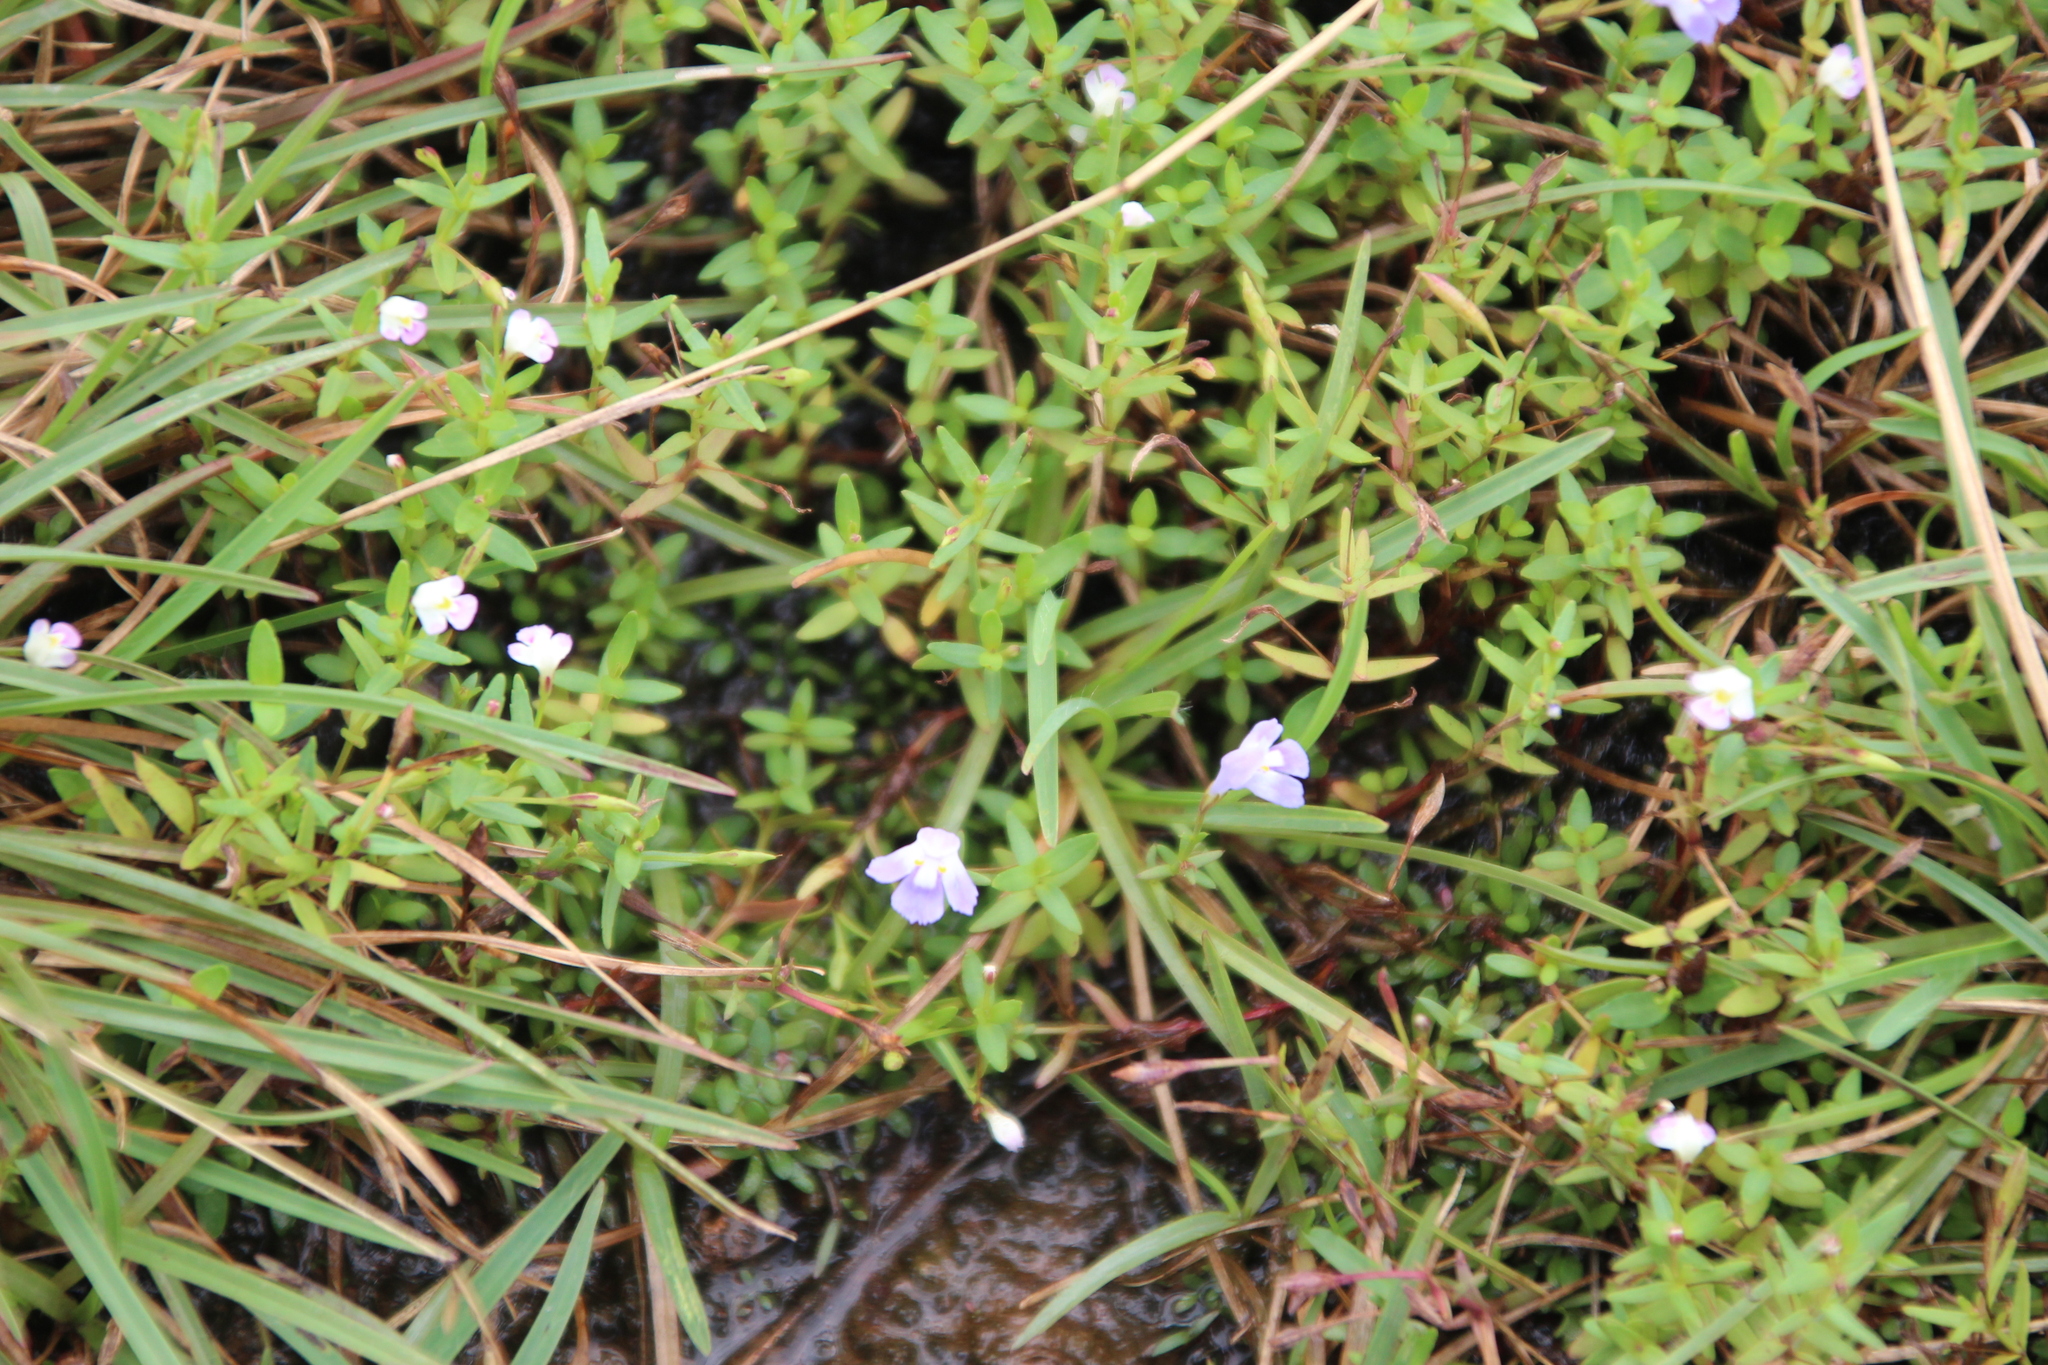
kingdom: Plantae
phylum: Tracheophyta
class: Magnoliopsida
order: Lamiales
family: Linderniaceae
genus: Linderniella
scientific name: Linderniella wilmsii
